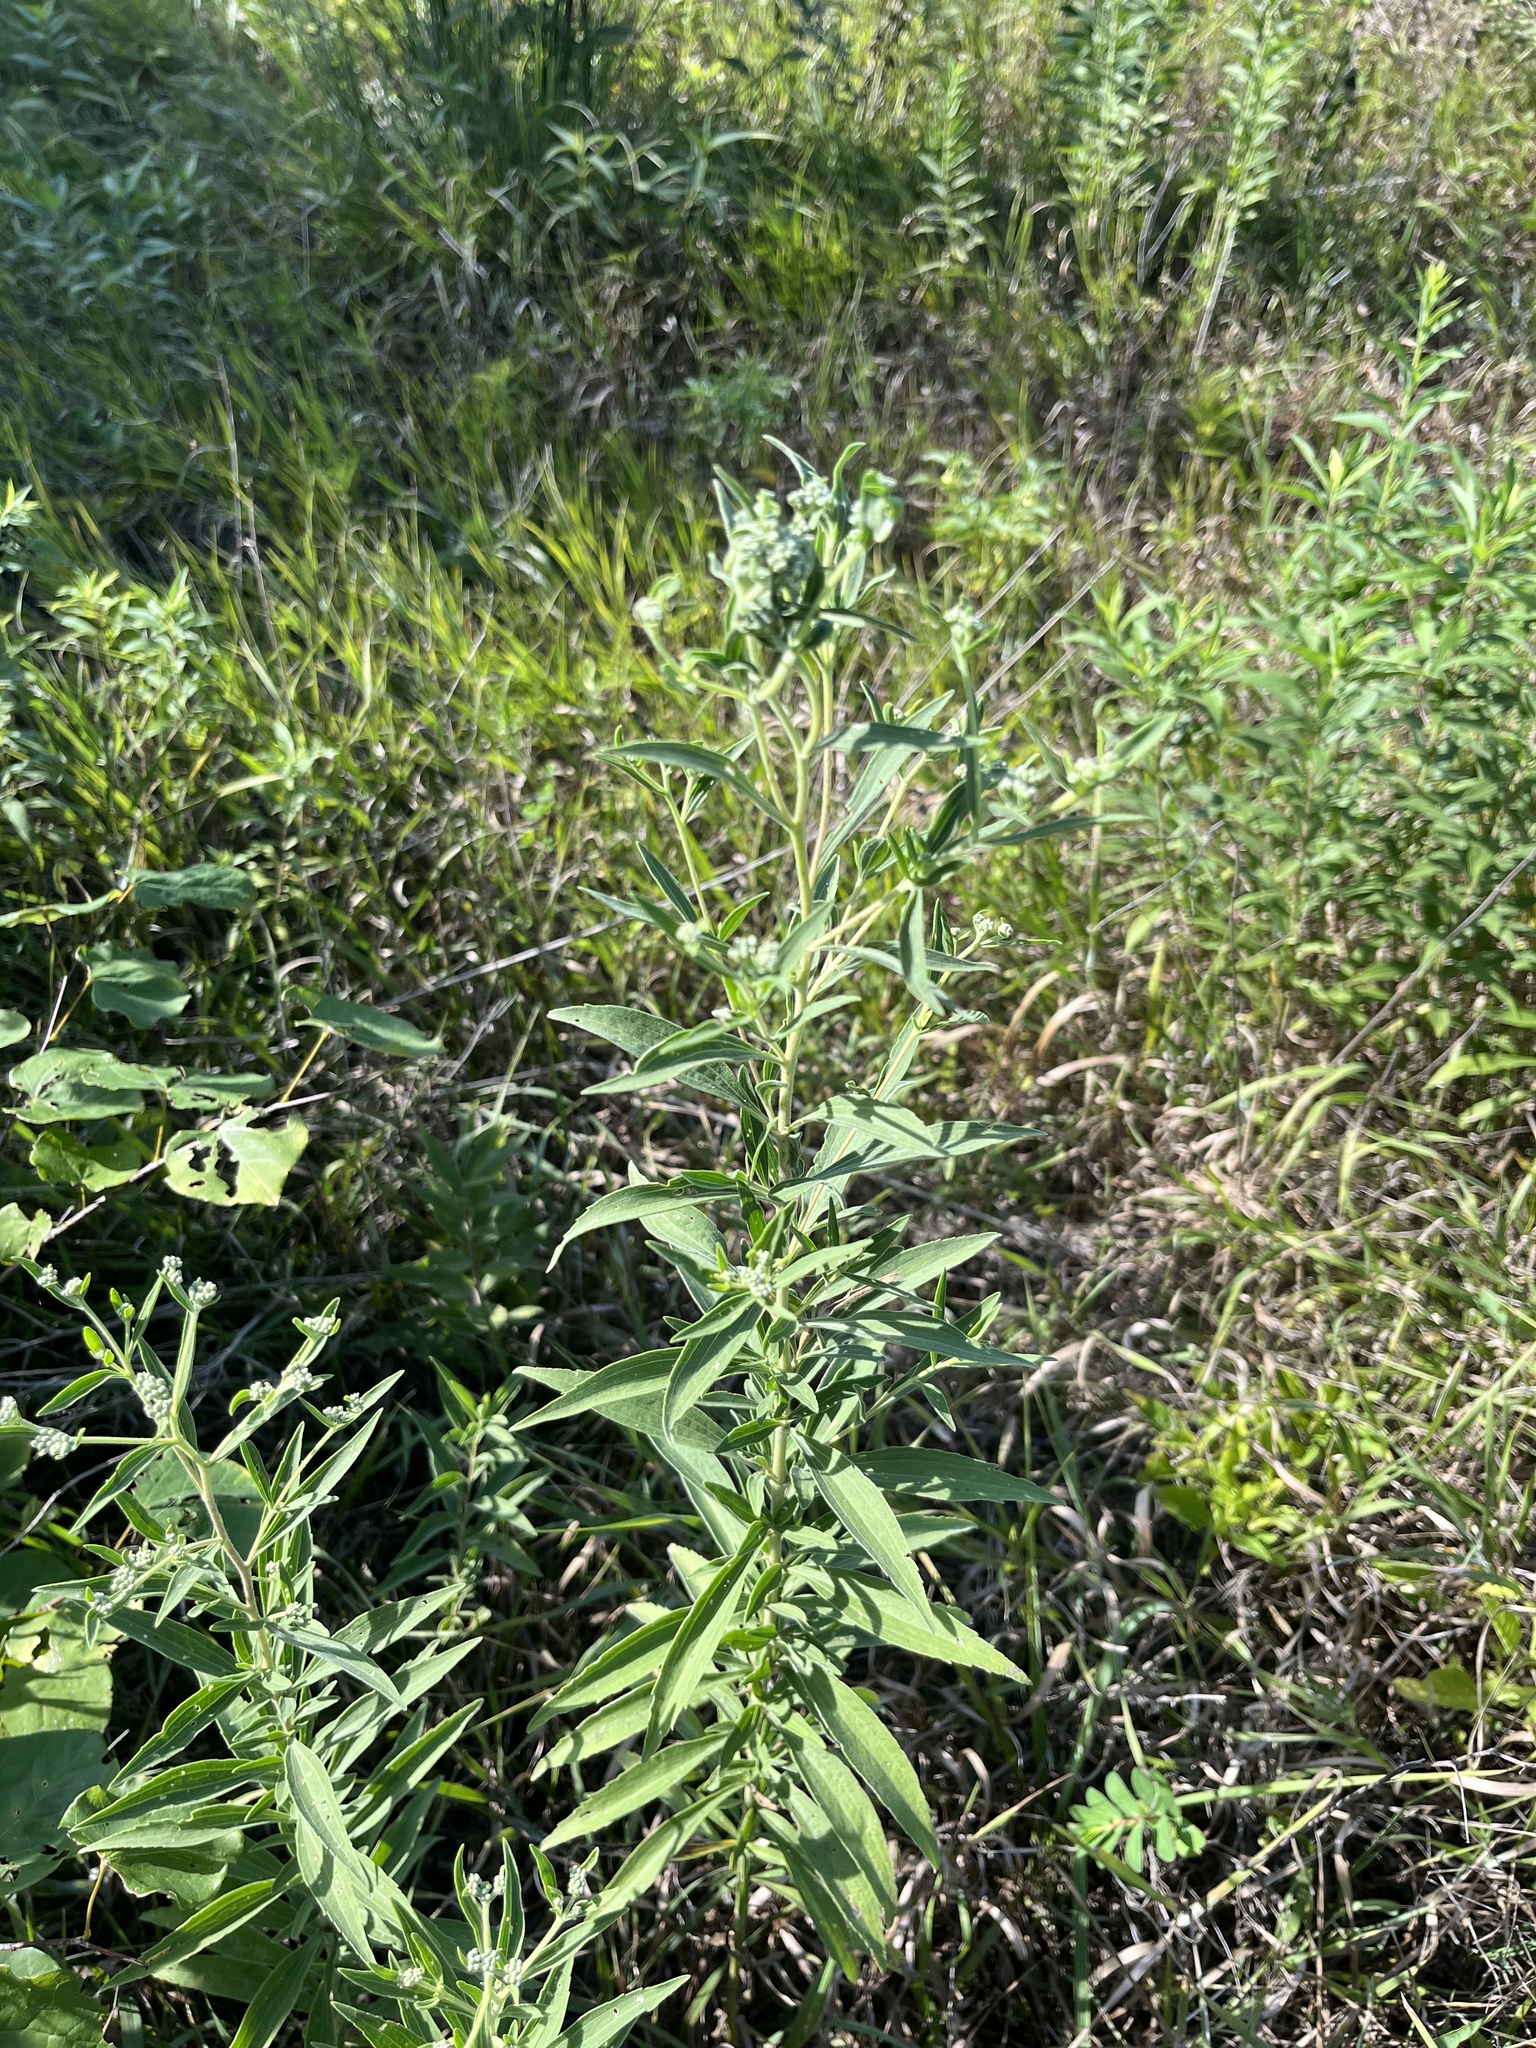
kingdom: Plantae
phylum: Tracheophyta
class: Magnoliopsida
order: Asterales
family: Asteraceae
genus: Eupatorium
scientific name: Eupatorium altissimum
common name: Tall thoroughwort
